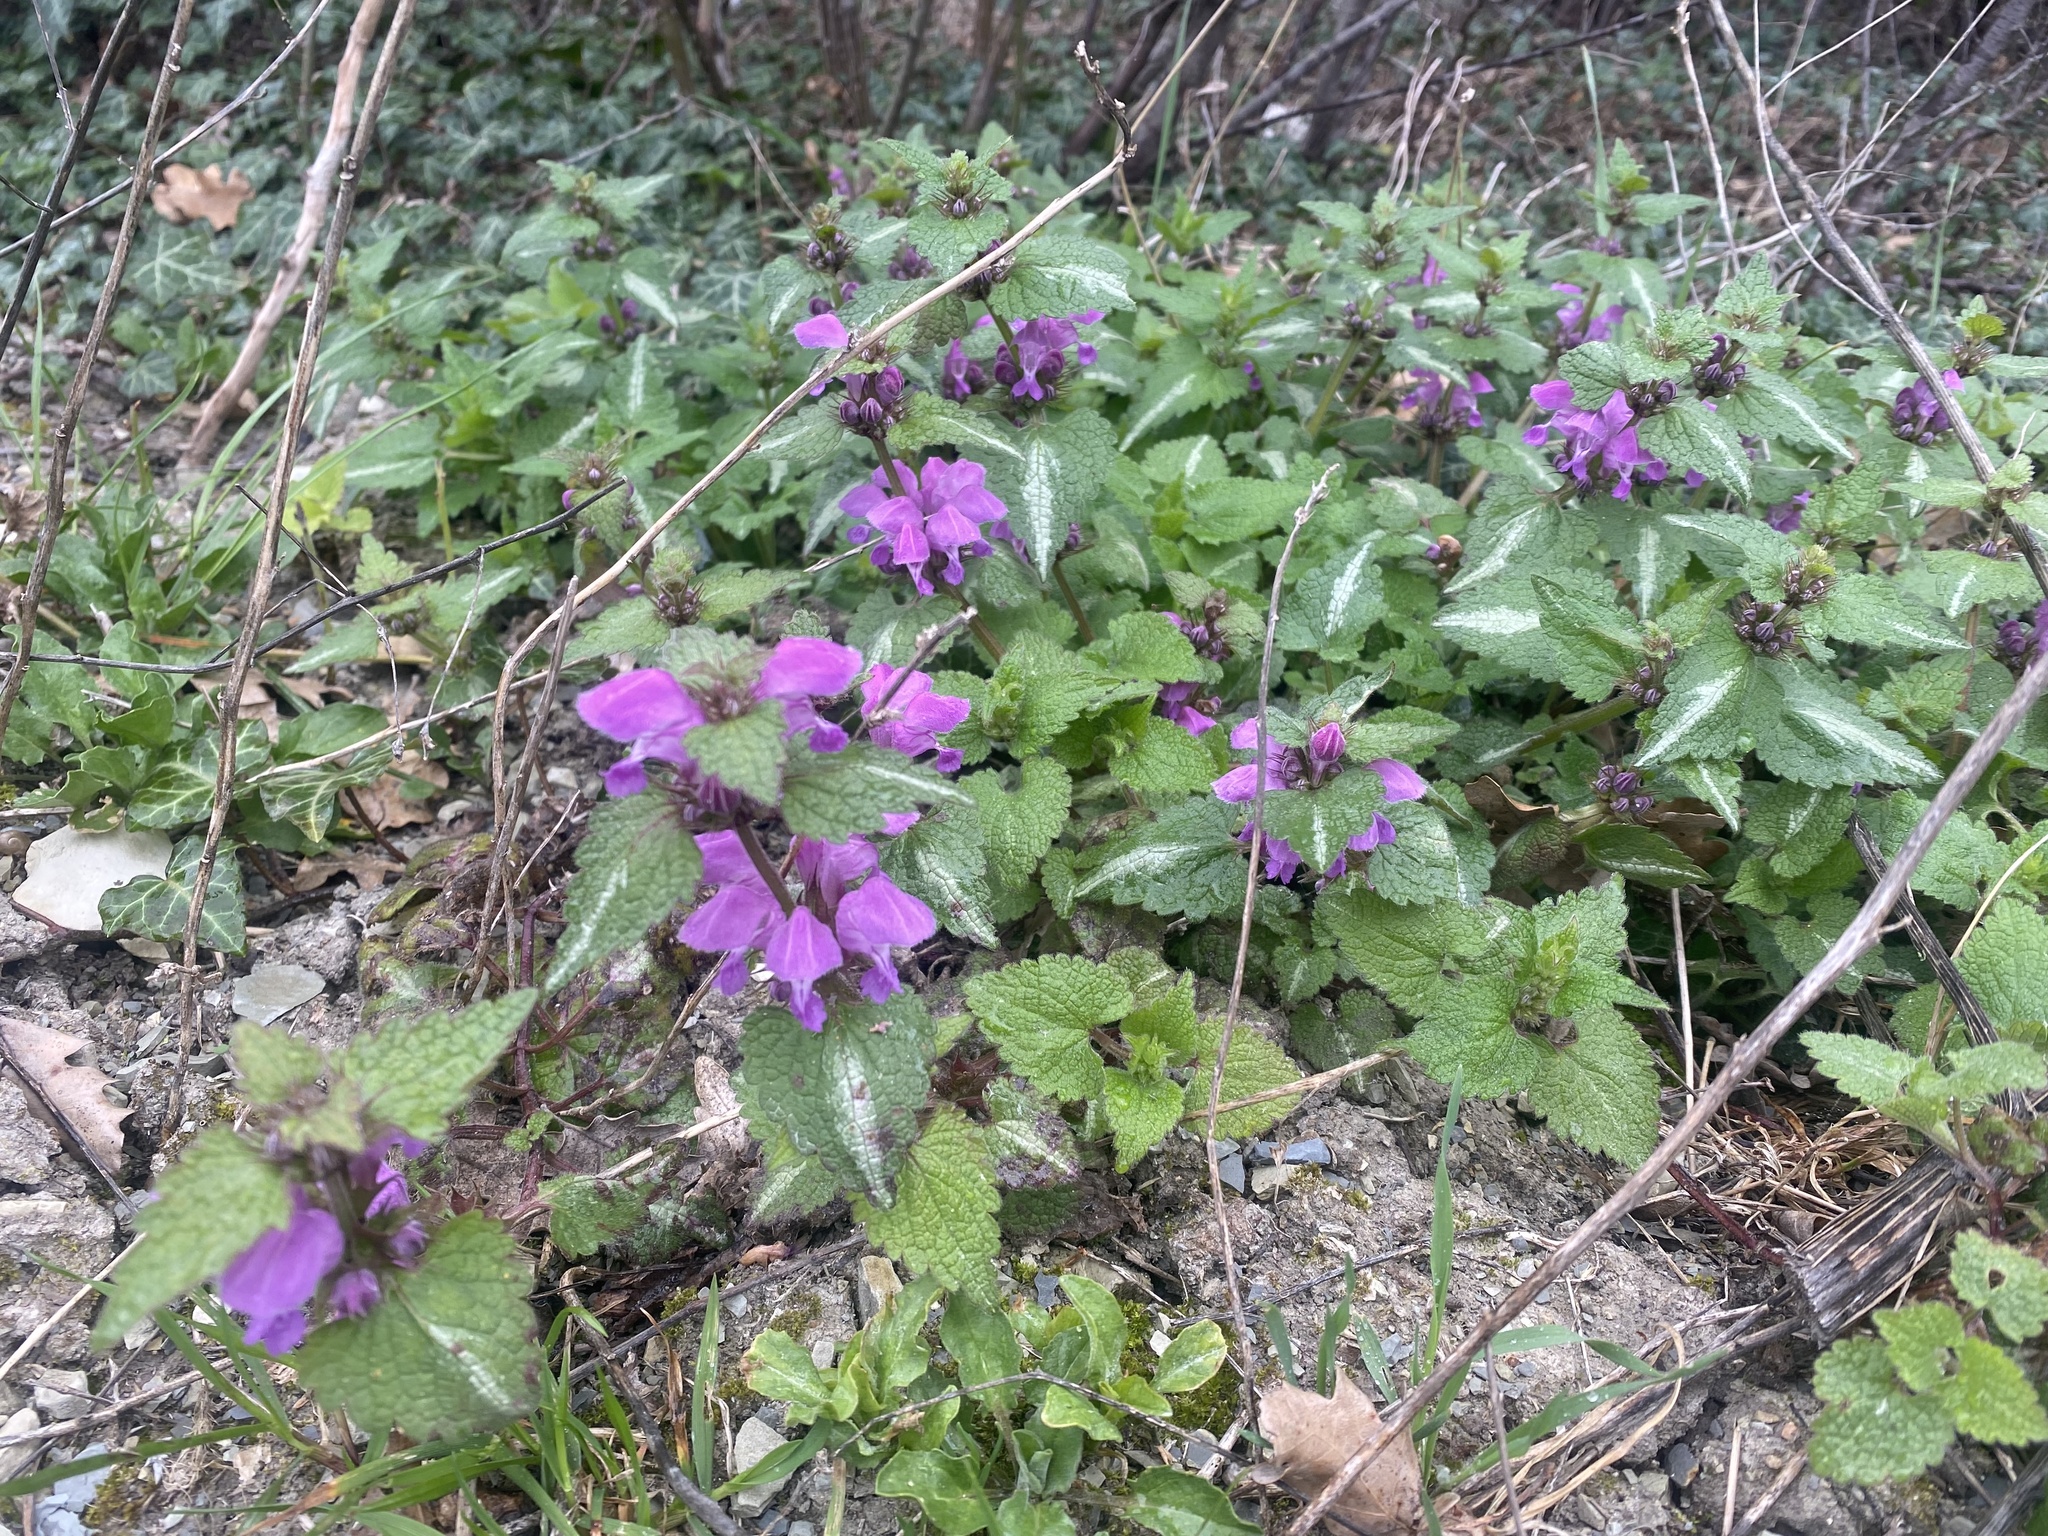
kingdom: Plantae
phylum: Tracheophyta
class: Magnoliopsida
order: Lamiales
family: Lamiaceae
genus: Lamium
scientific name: Lamium maculatum
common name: Spotted dead-nettle
